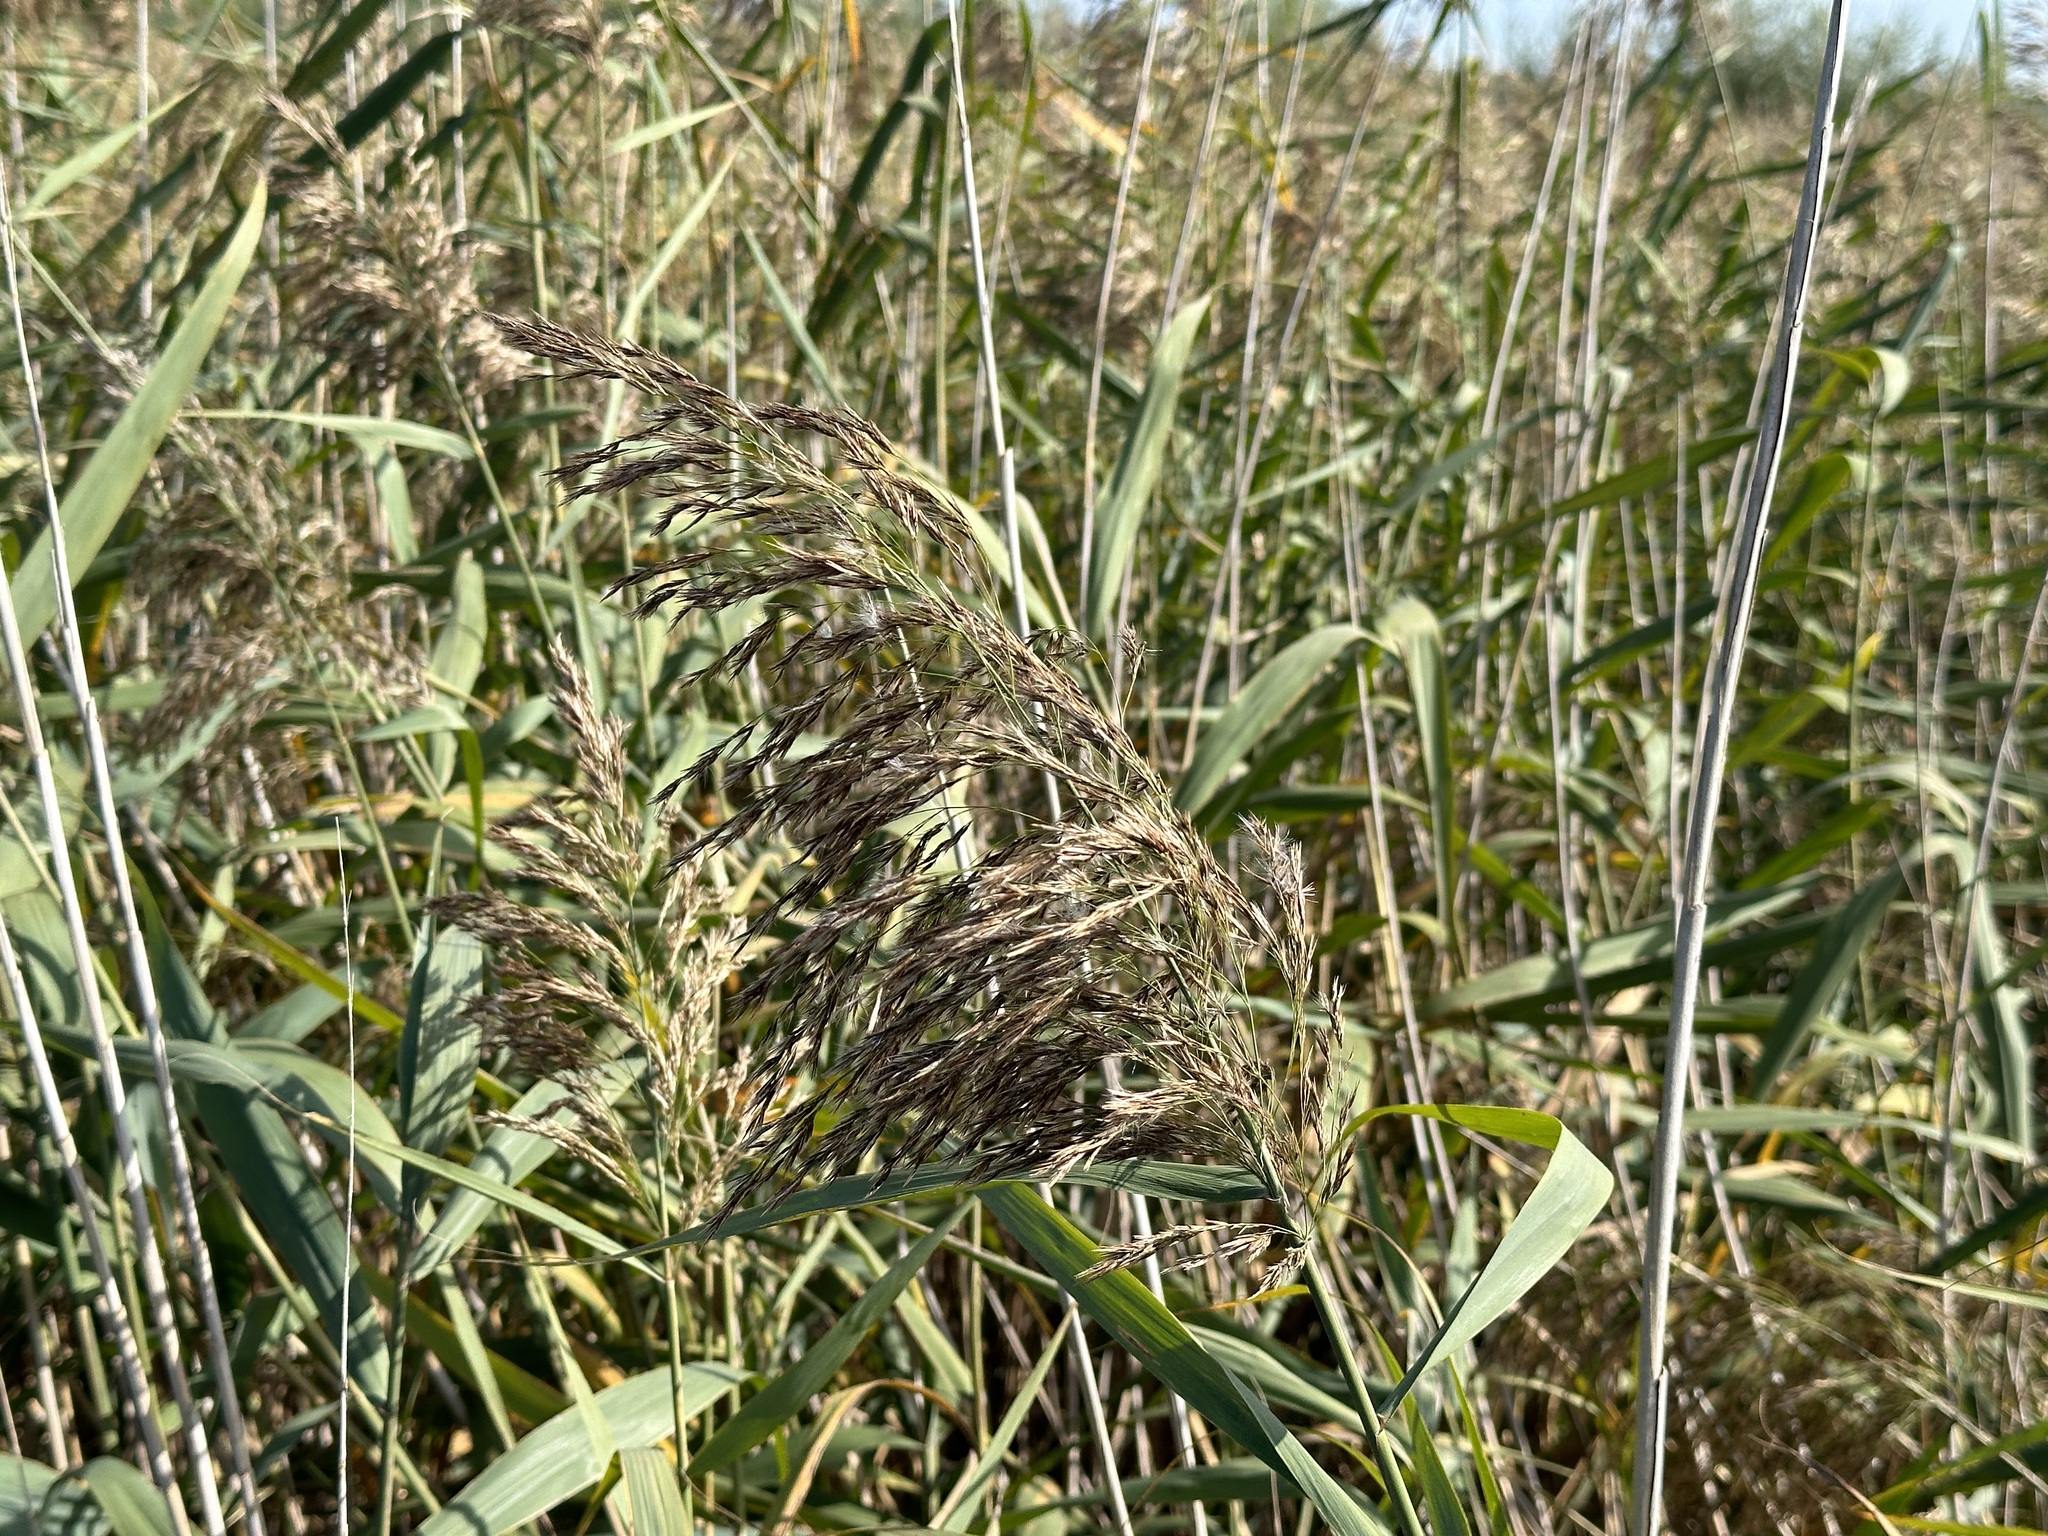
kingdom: Plantae
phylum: Tracheophyta
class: Liliopsida
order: Poales
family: Poaceae
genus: Phragmites
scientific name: Phragmites australis
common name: Common reed
